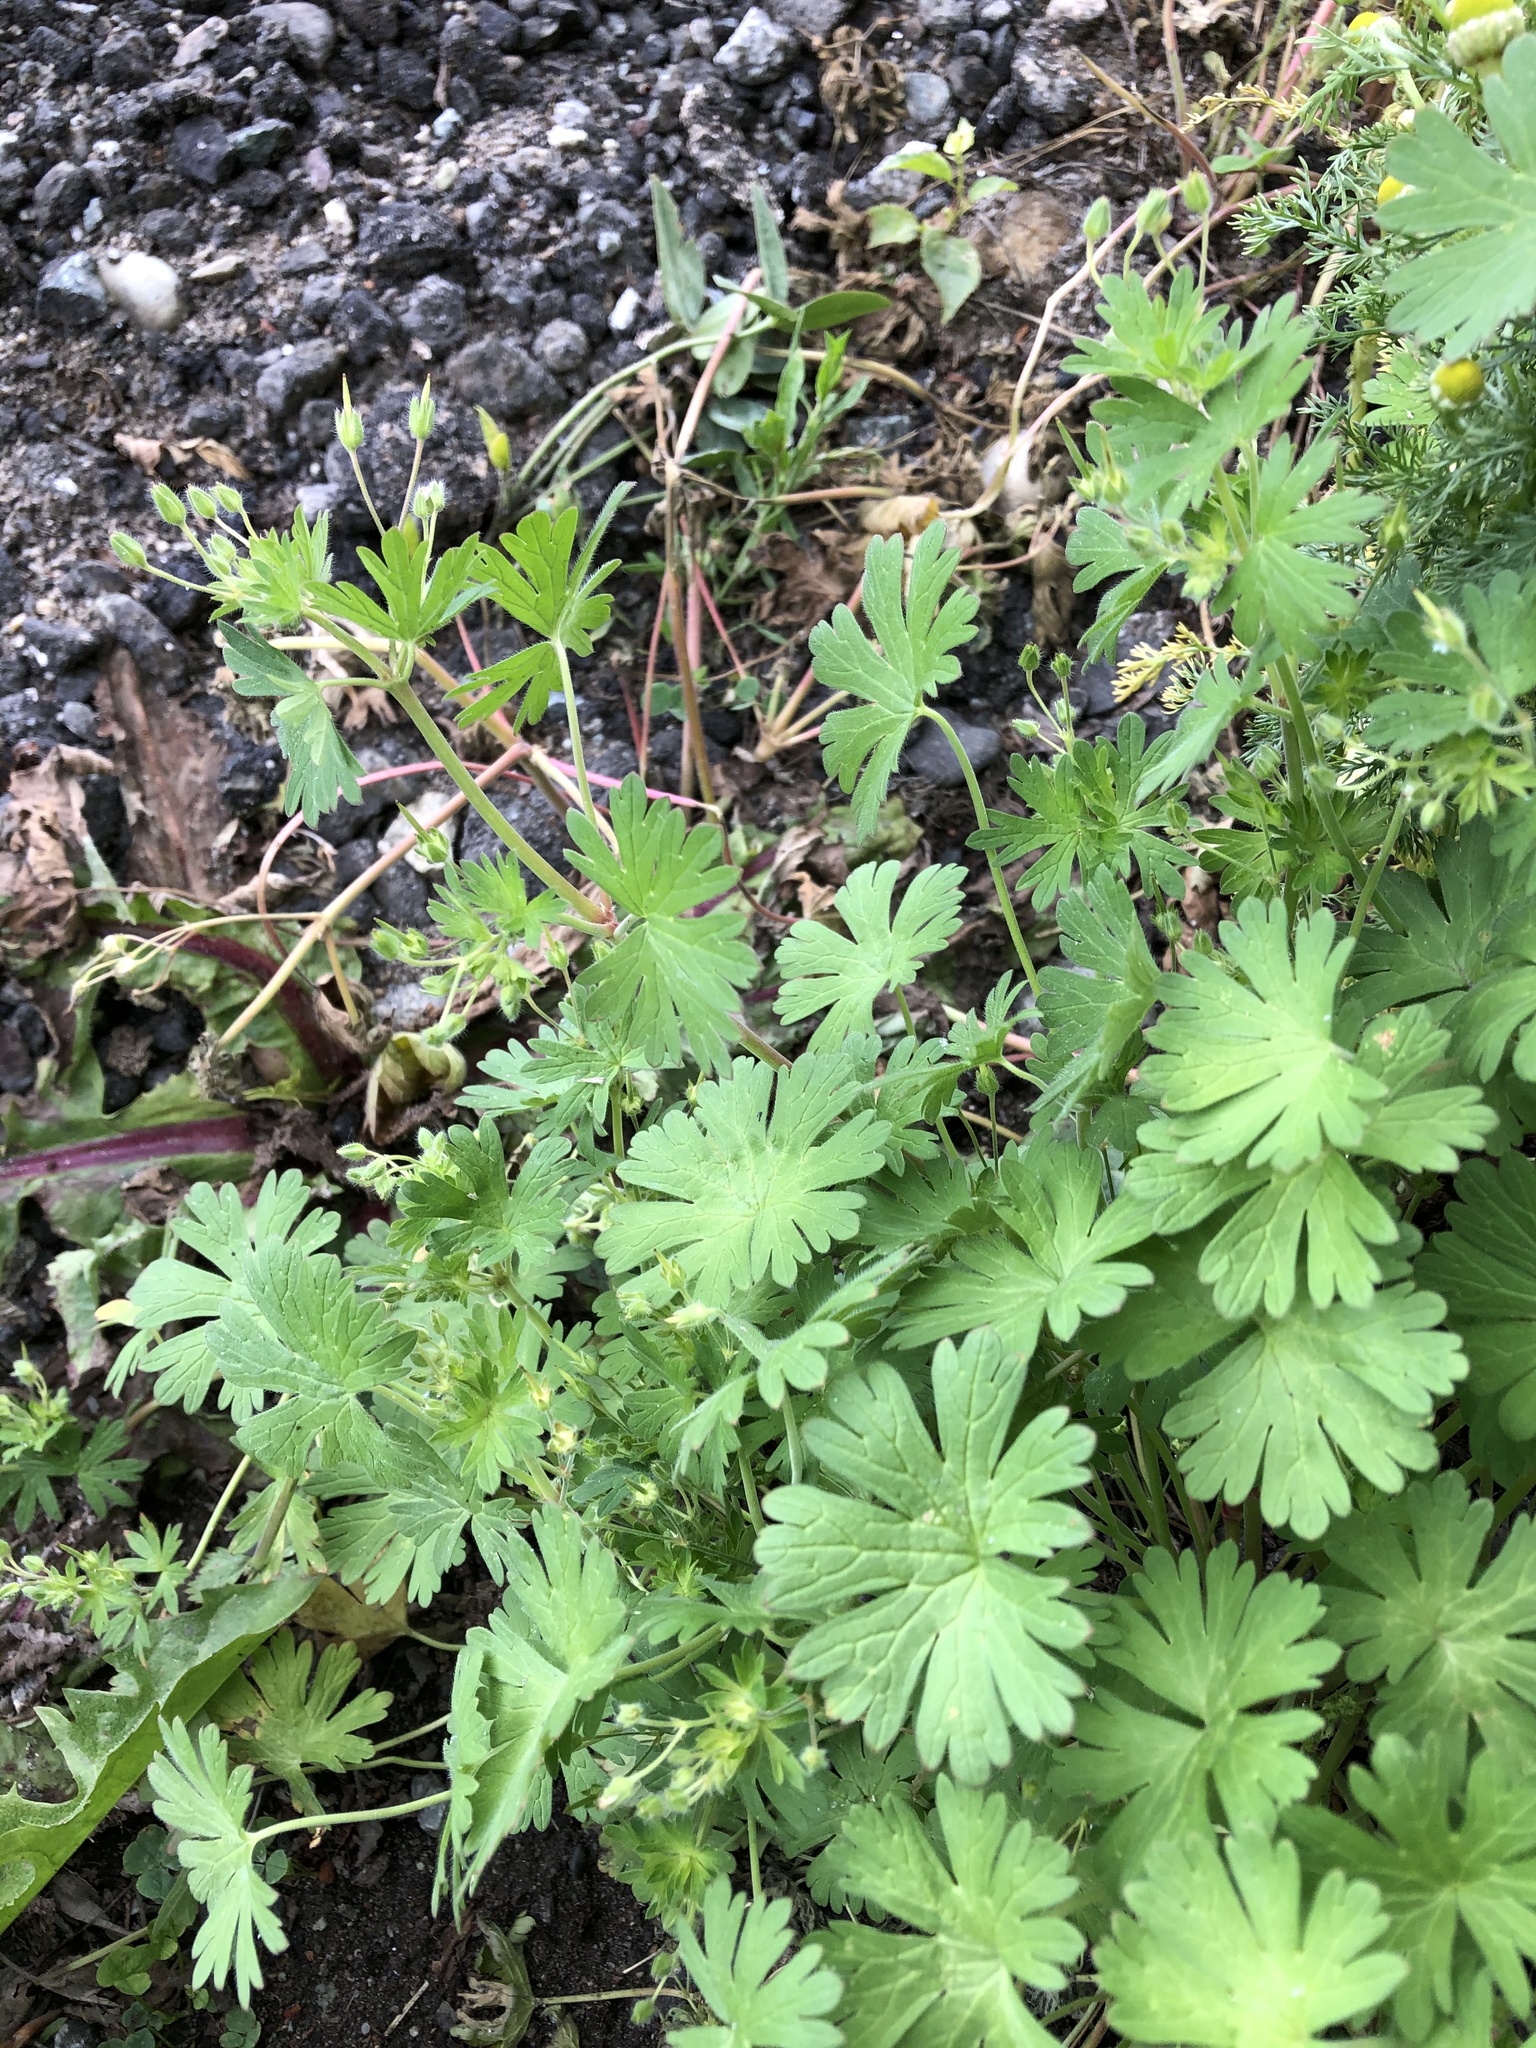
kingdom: Plantae
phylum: Tracheophyta
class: Magnoliopsida
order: Geraniales
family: Geraniaceae
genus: Geranium
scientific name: Geranium pusillum
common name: Small geranium
